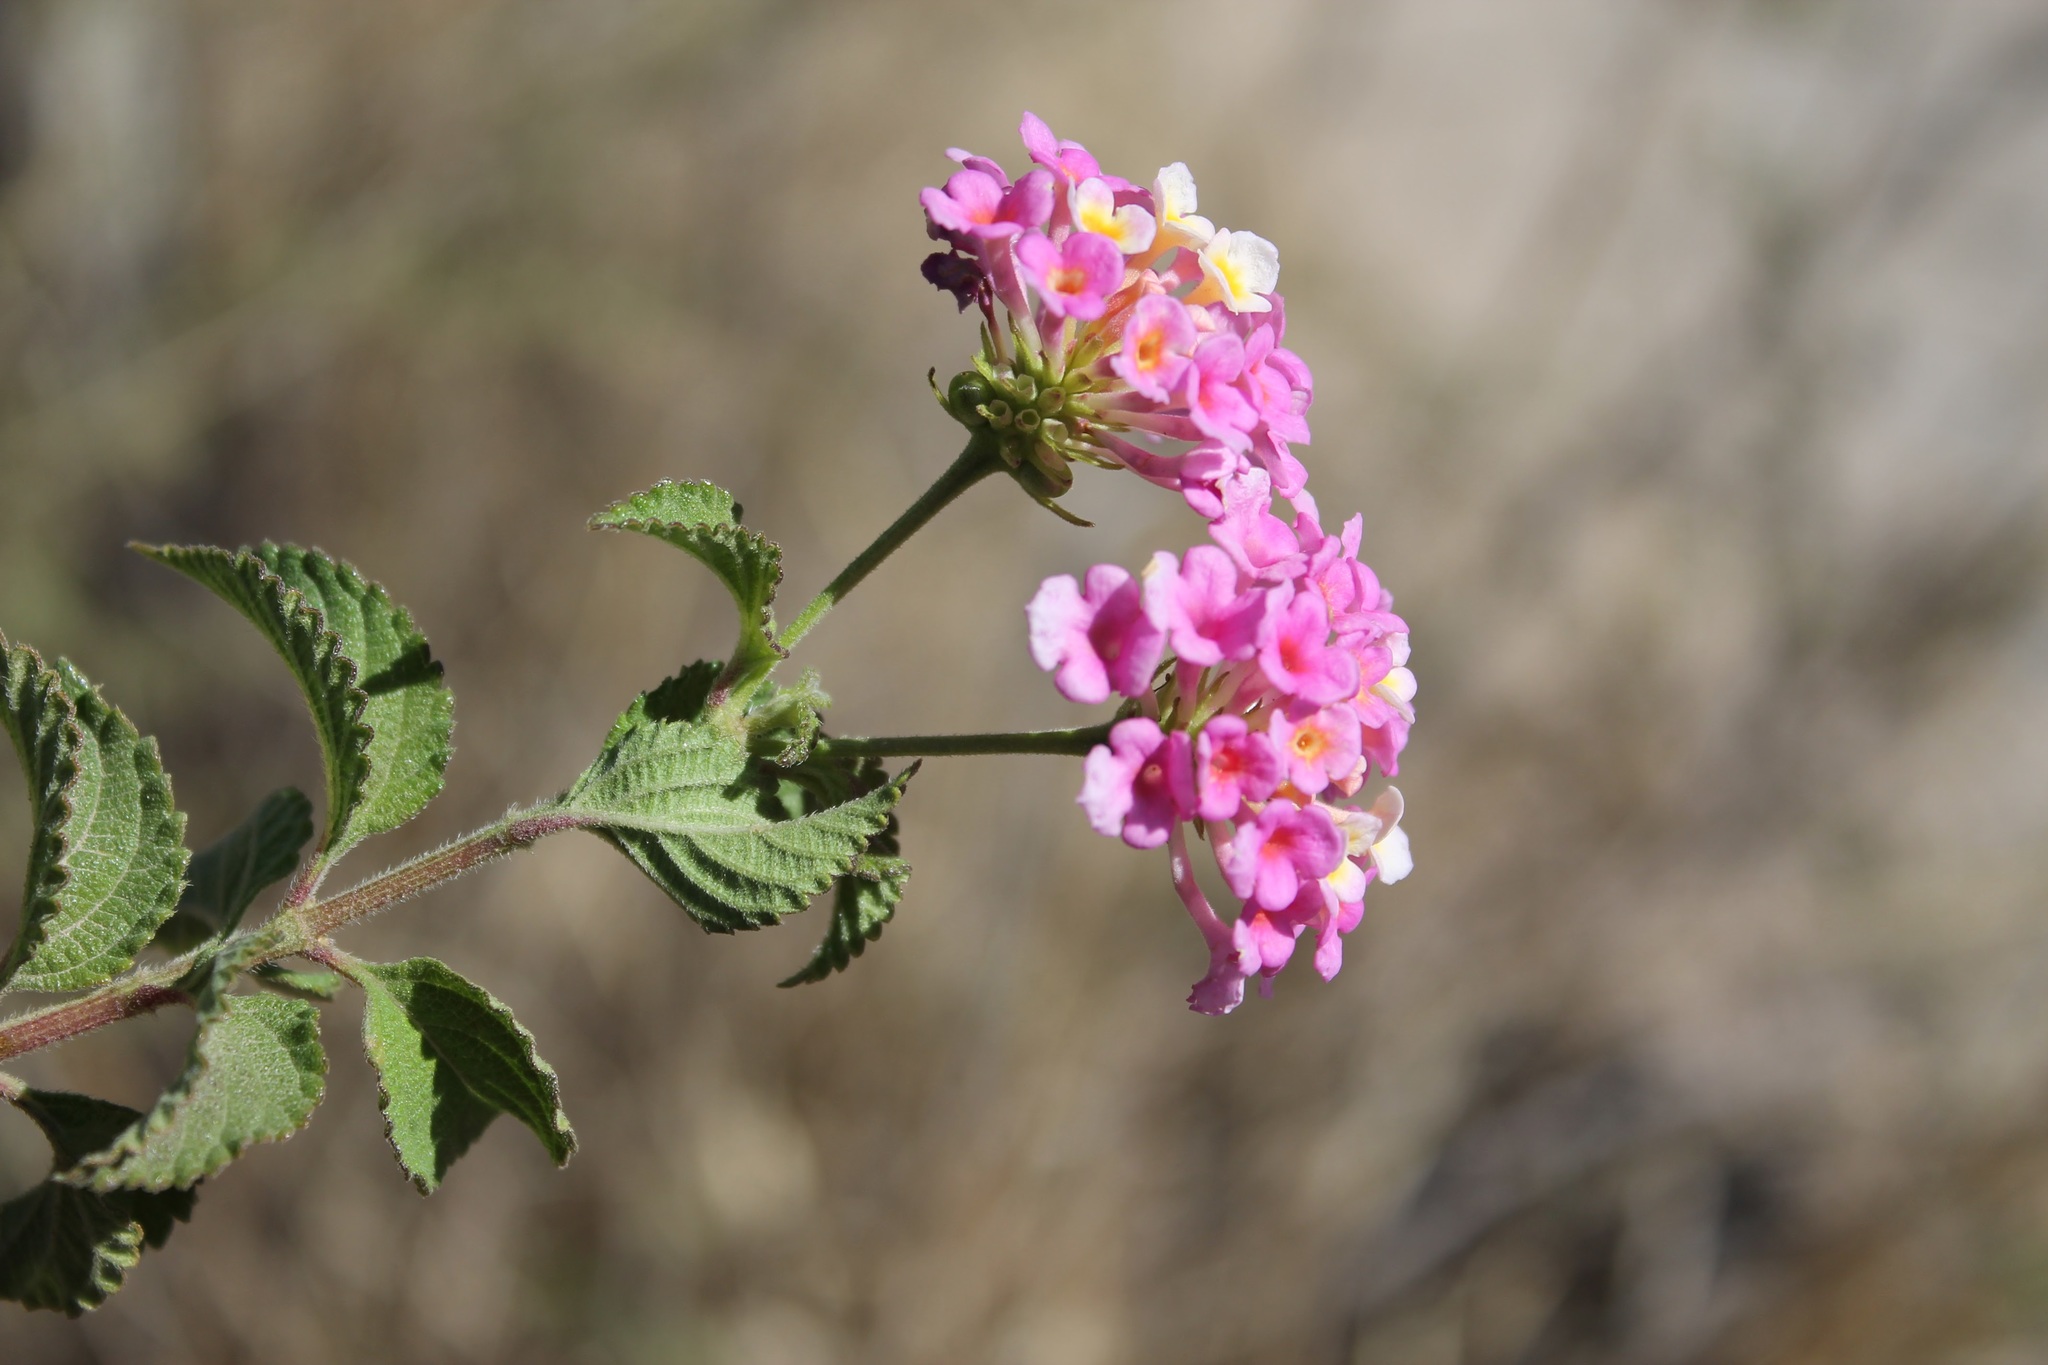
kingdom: Plantae
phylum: Tracheophyta
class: Magnoliopsida
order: Lamiales
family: Verbenaceae
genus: Lantana
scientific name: Lantana camara
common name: Lantana
